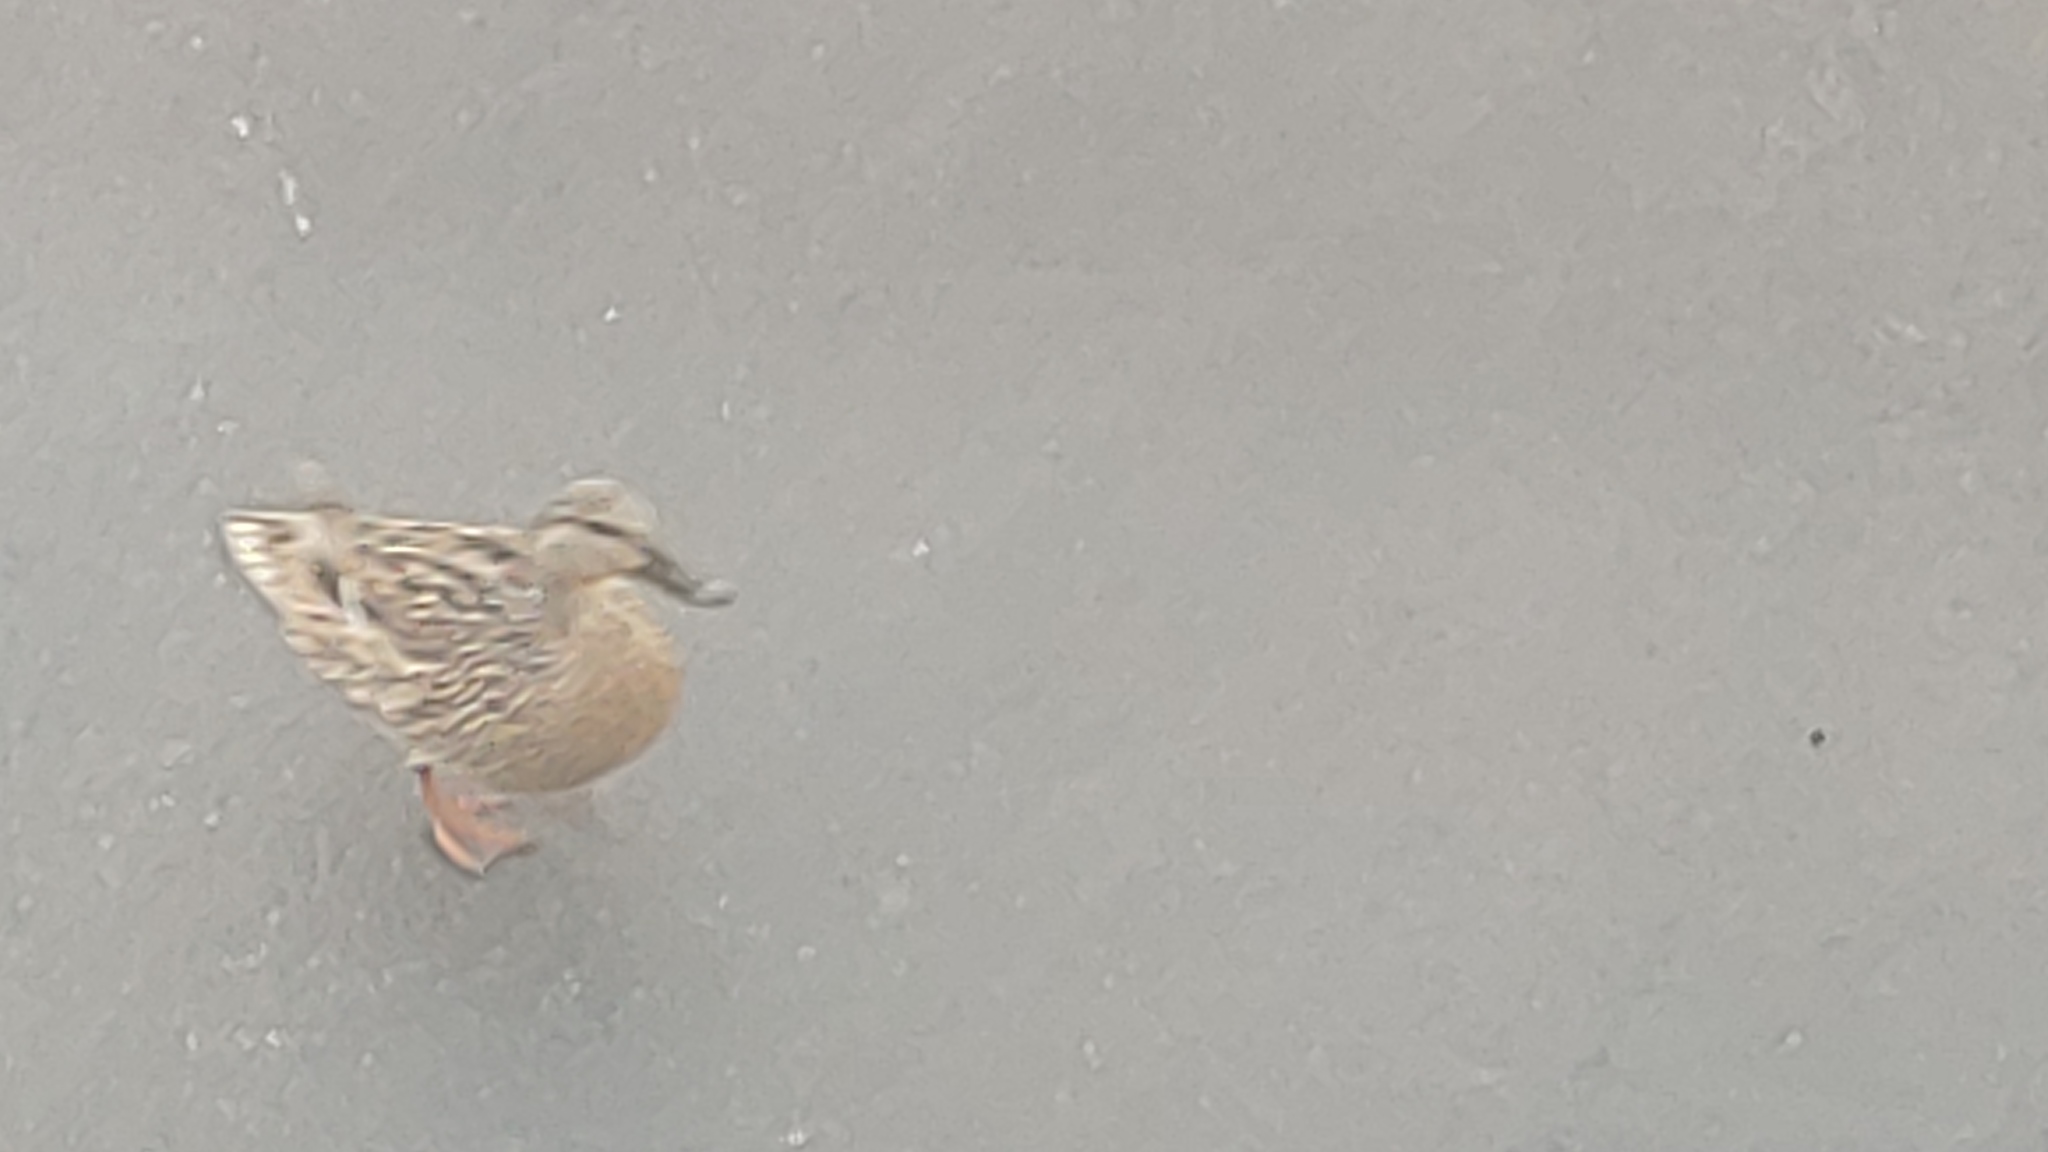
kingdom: Animalia
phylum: Chordata
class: Aves
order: Anseriformes
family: Anatidae
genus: Anas
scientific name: Anas platyrhynchos
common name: Mallard
